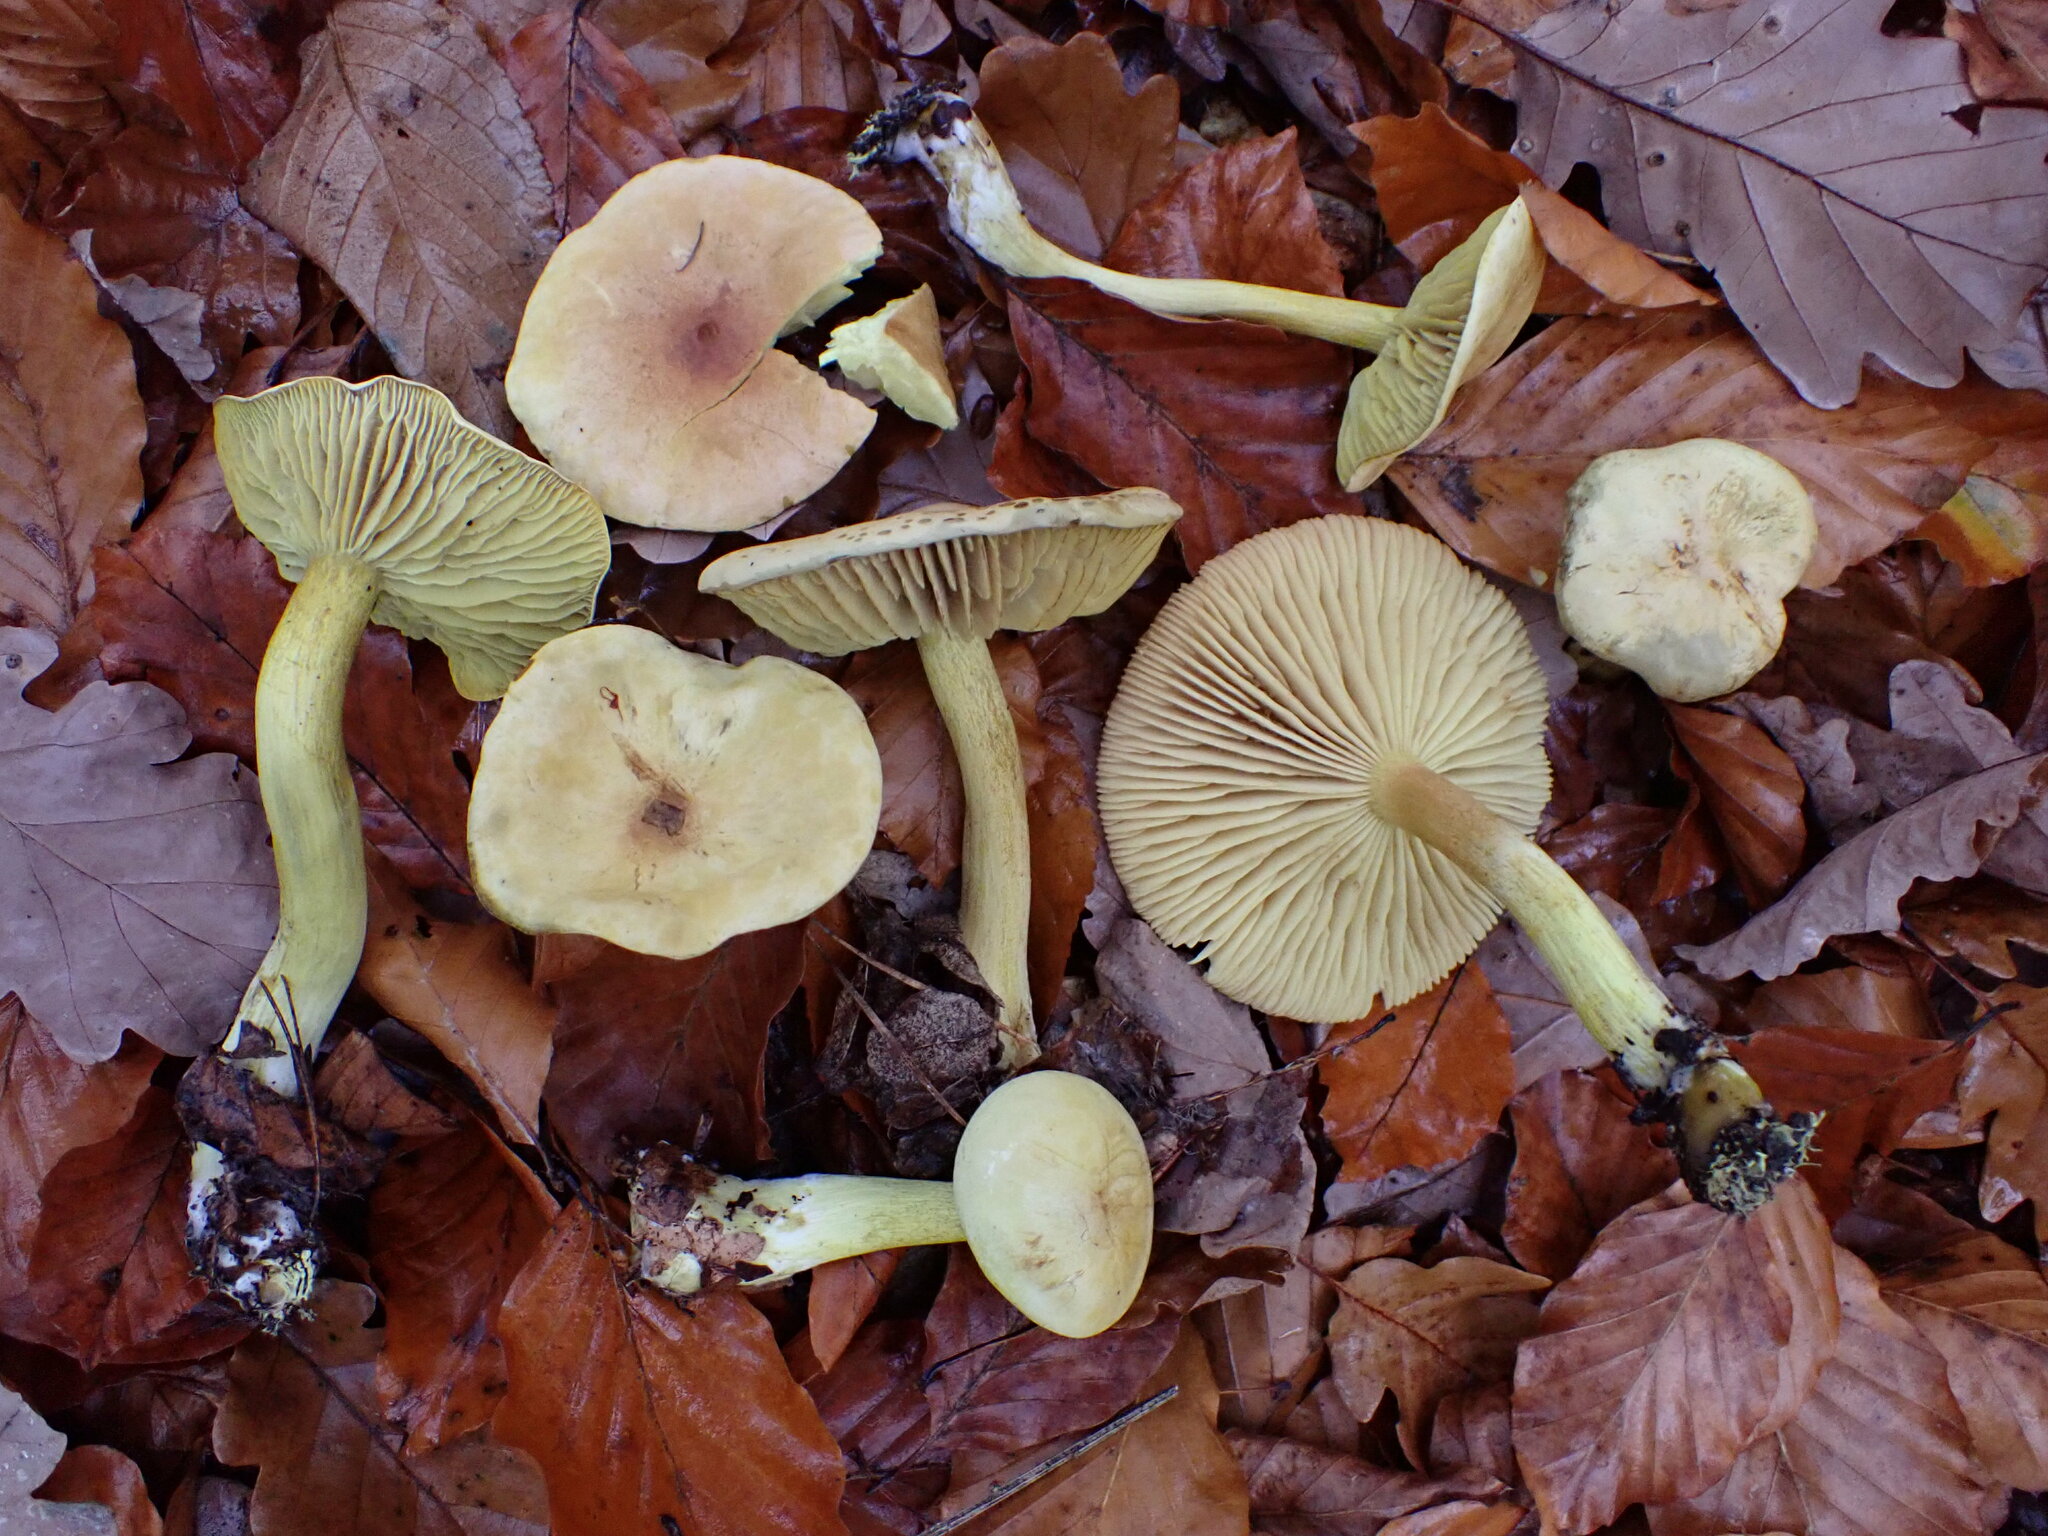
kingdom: Fungi
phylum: Basidiomycota
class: Agaricomycetes
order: Agaricales
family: Tricholomataceae
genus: Tricholoma
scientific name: Tricholoma sulphureum
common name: Stinky knight
